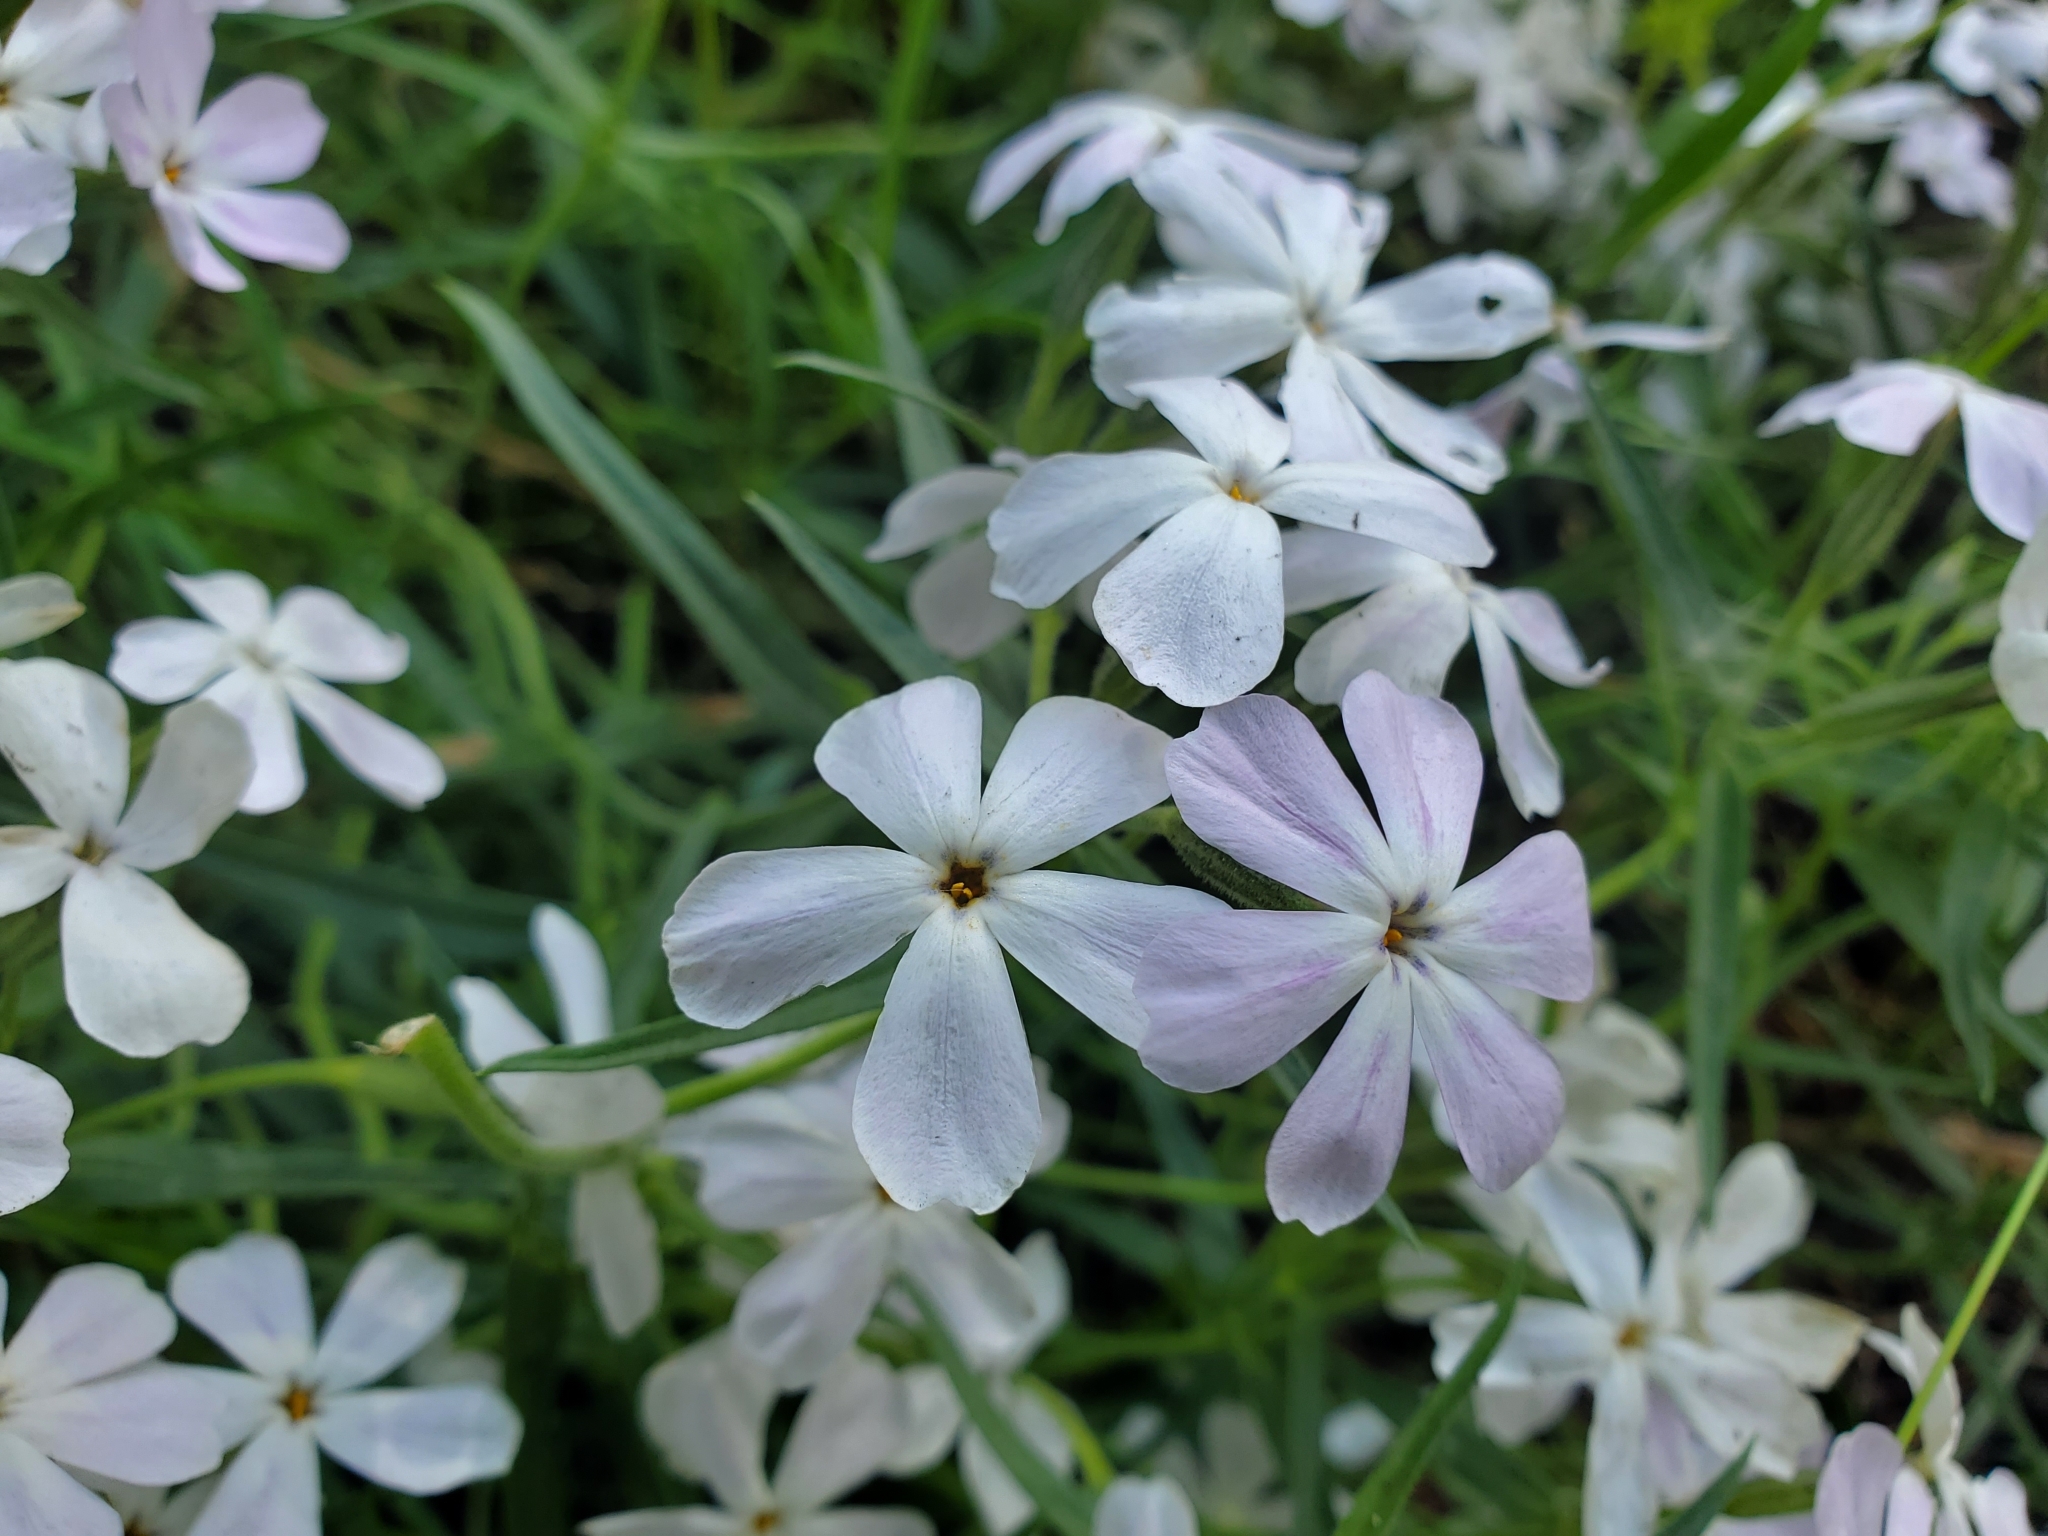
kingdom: Plantae
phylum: Tracheophyta
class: Magnoliopsida
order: Ericales
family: Polemoniaceae
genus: Phlox
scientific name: Phlox longifolia
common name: Longleaf phlox
